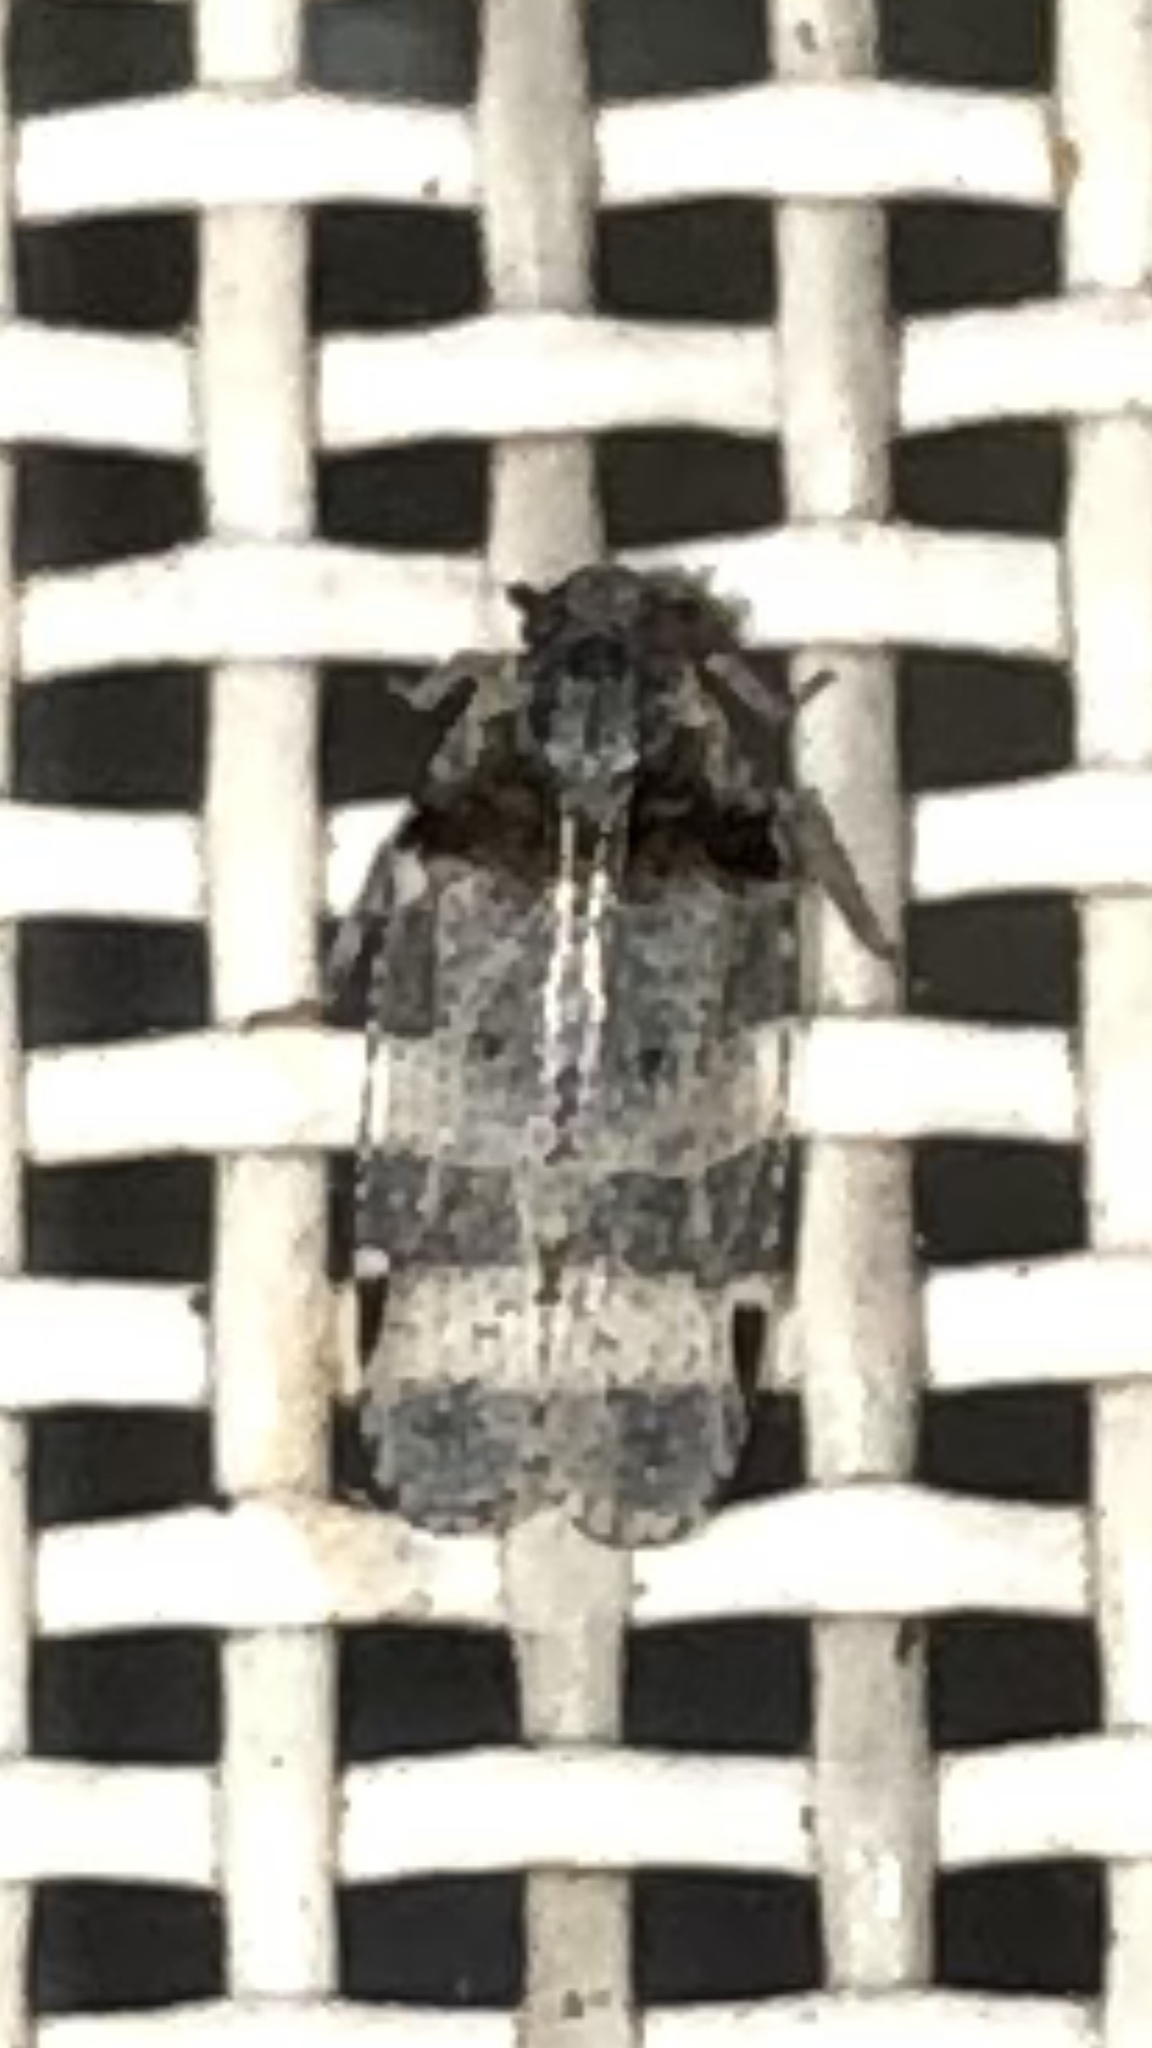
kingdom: Animalia
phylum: Arthropoda
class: Insecta
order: Hemiptera
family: Cixiidae
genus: Cixius
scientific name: Cixius stigmatus
